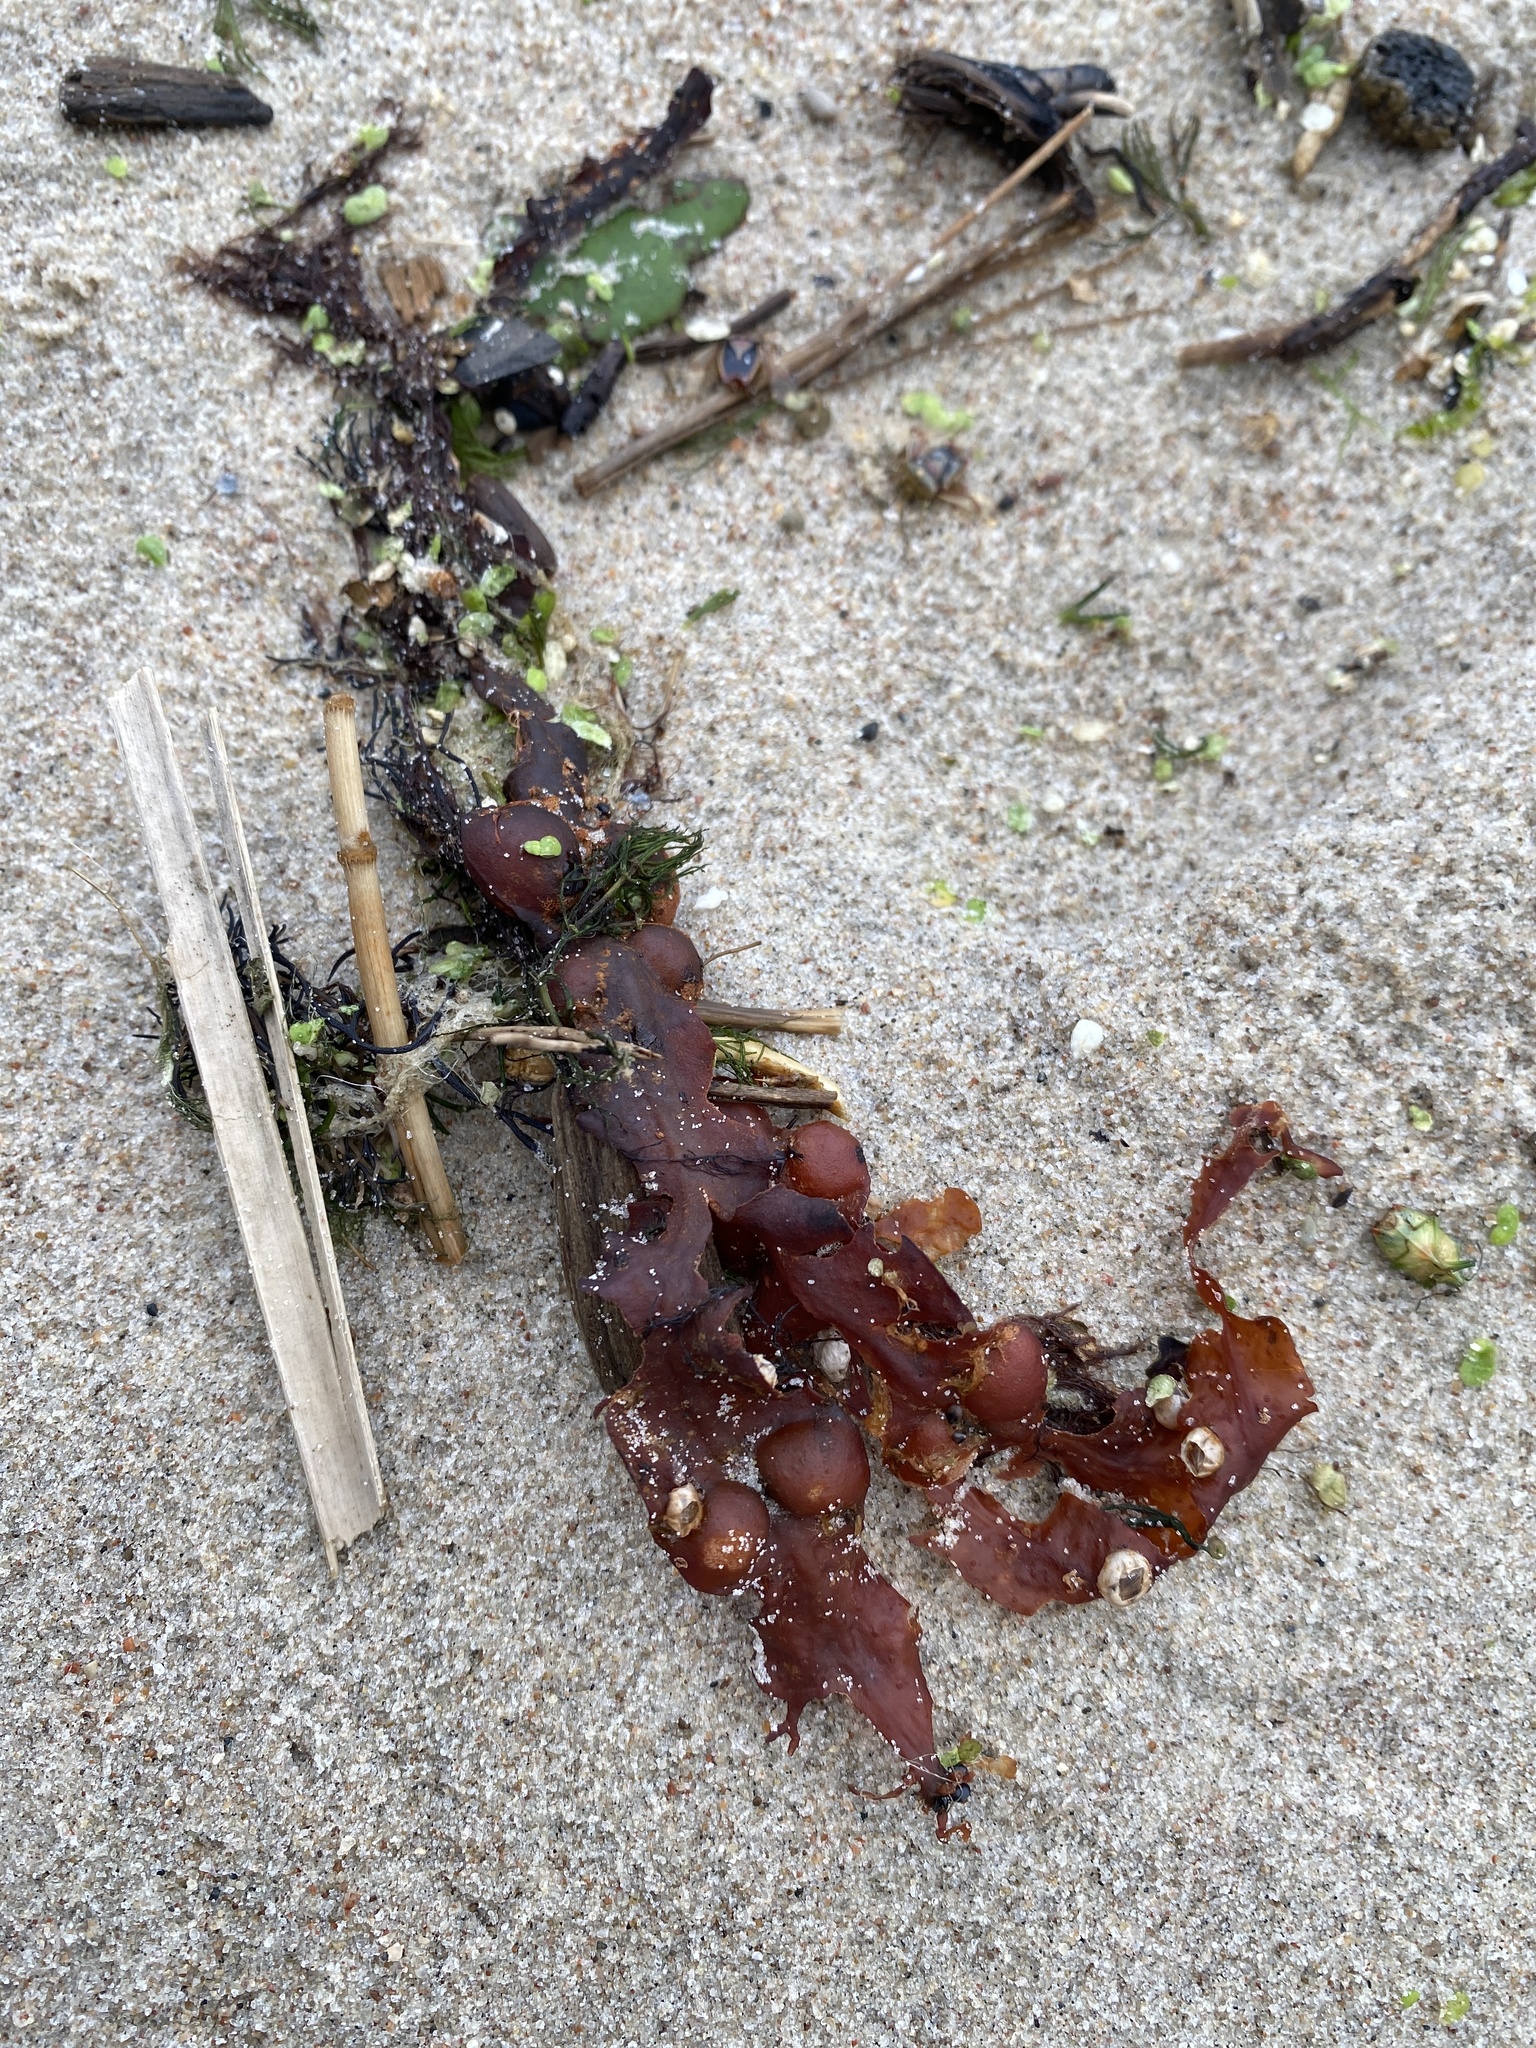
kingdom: Chromista
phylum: Ochrophyta
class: Phaeophyceae
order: Fucales
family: Fucaceae
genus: Fucus
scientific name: Fucus vesiculosus
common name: Bladder wrack
